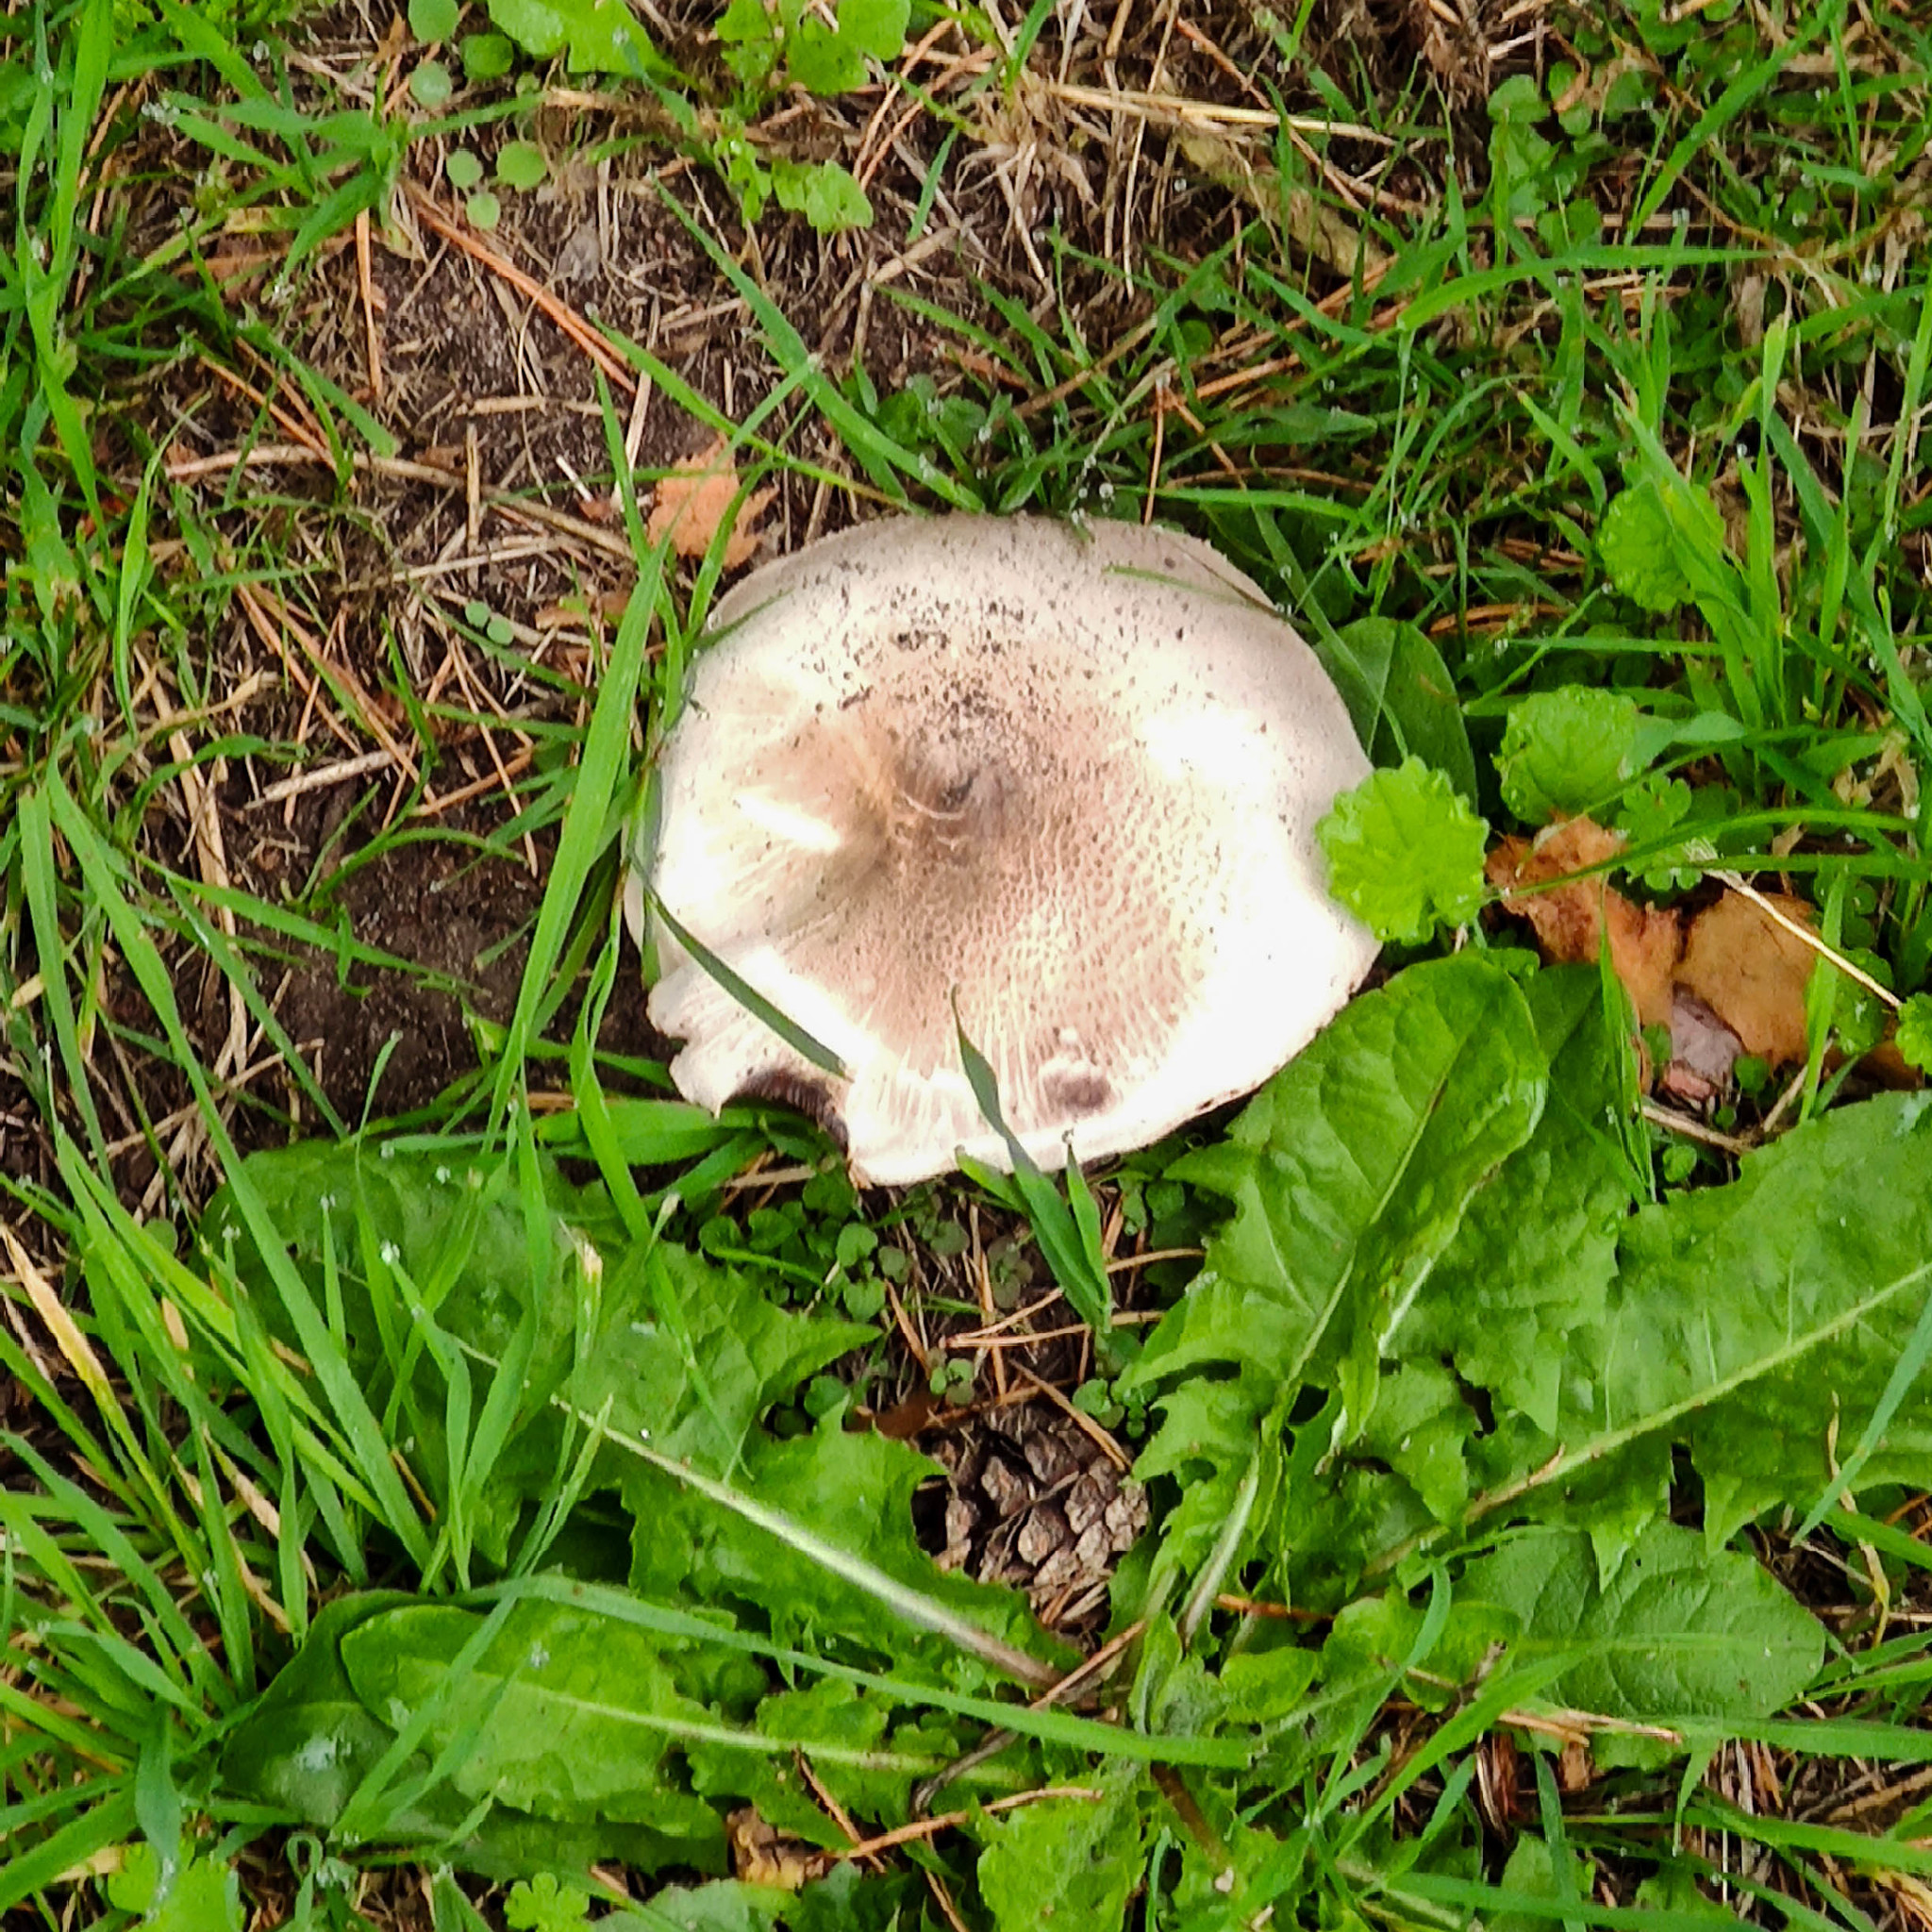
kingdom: Fungi
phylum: Basidiomycota
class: Agaricomycetes
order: Agaricales
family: Agaricaceae
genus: Agaricus
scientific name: Agaricus xanthodermus
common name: Yellow stainer
